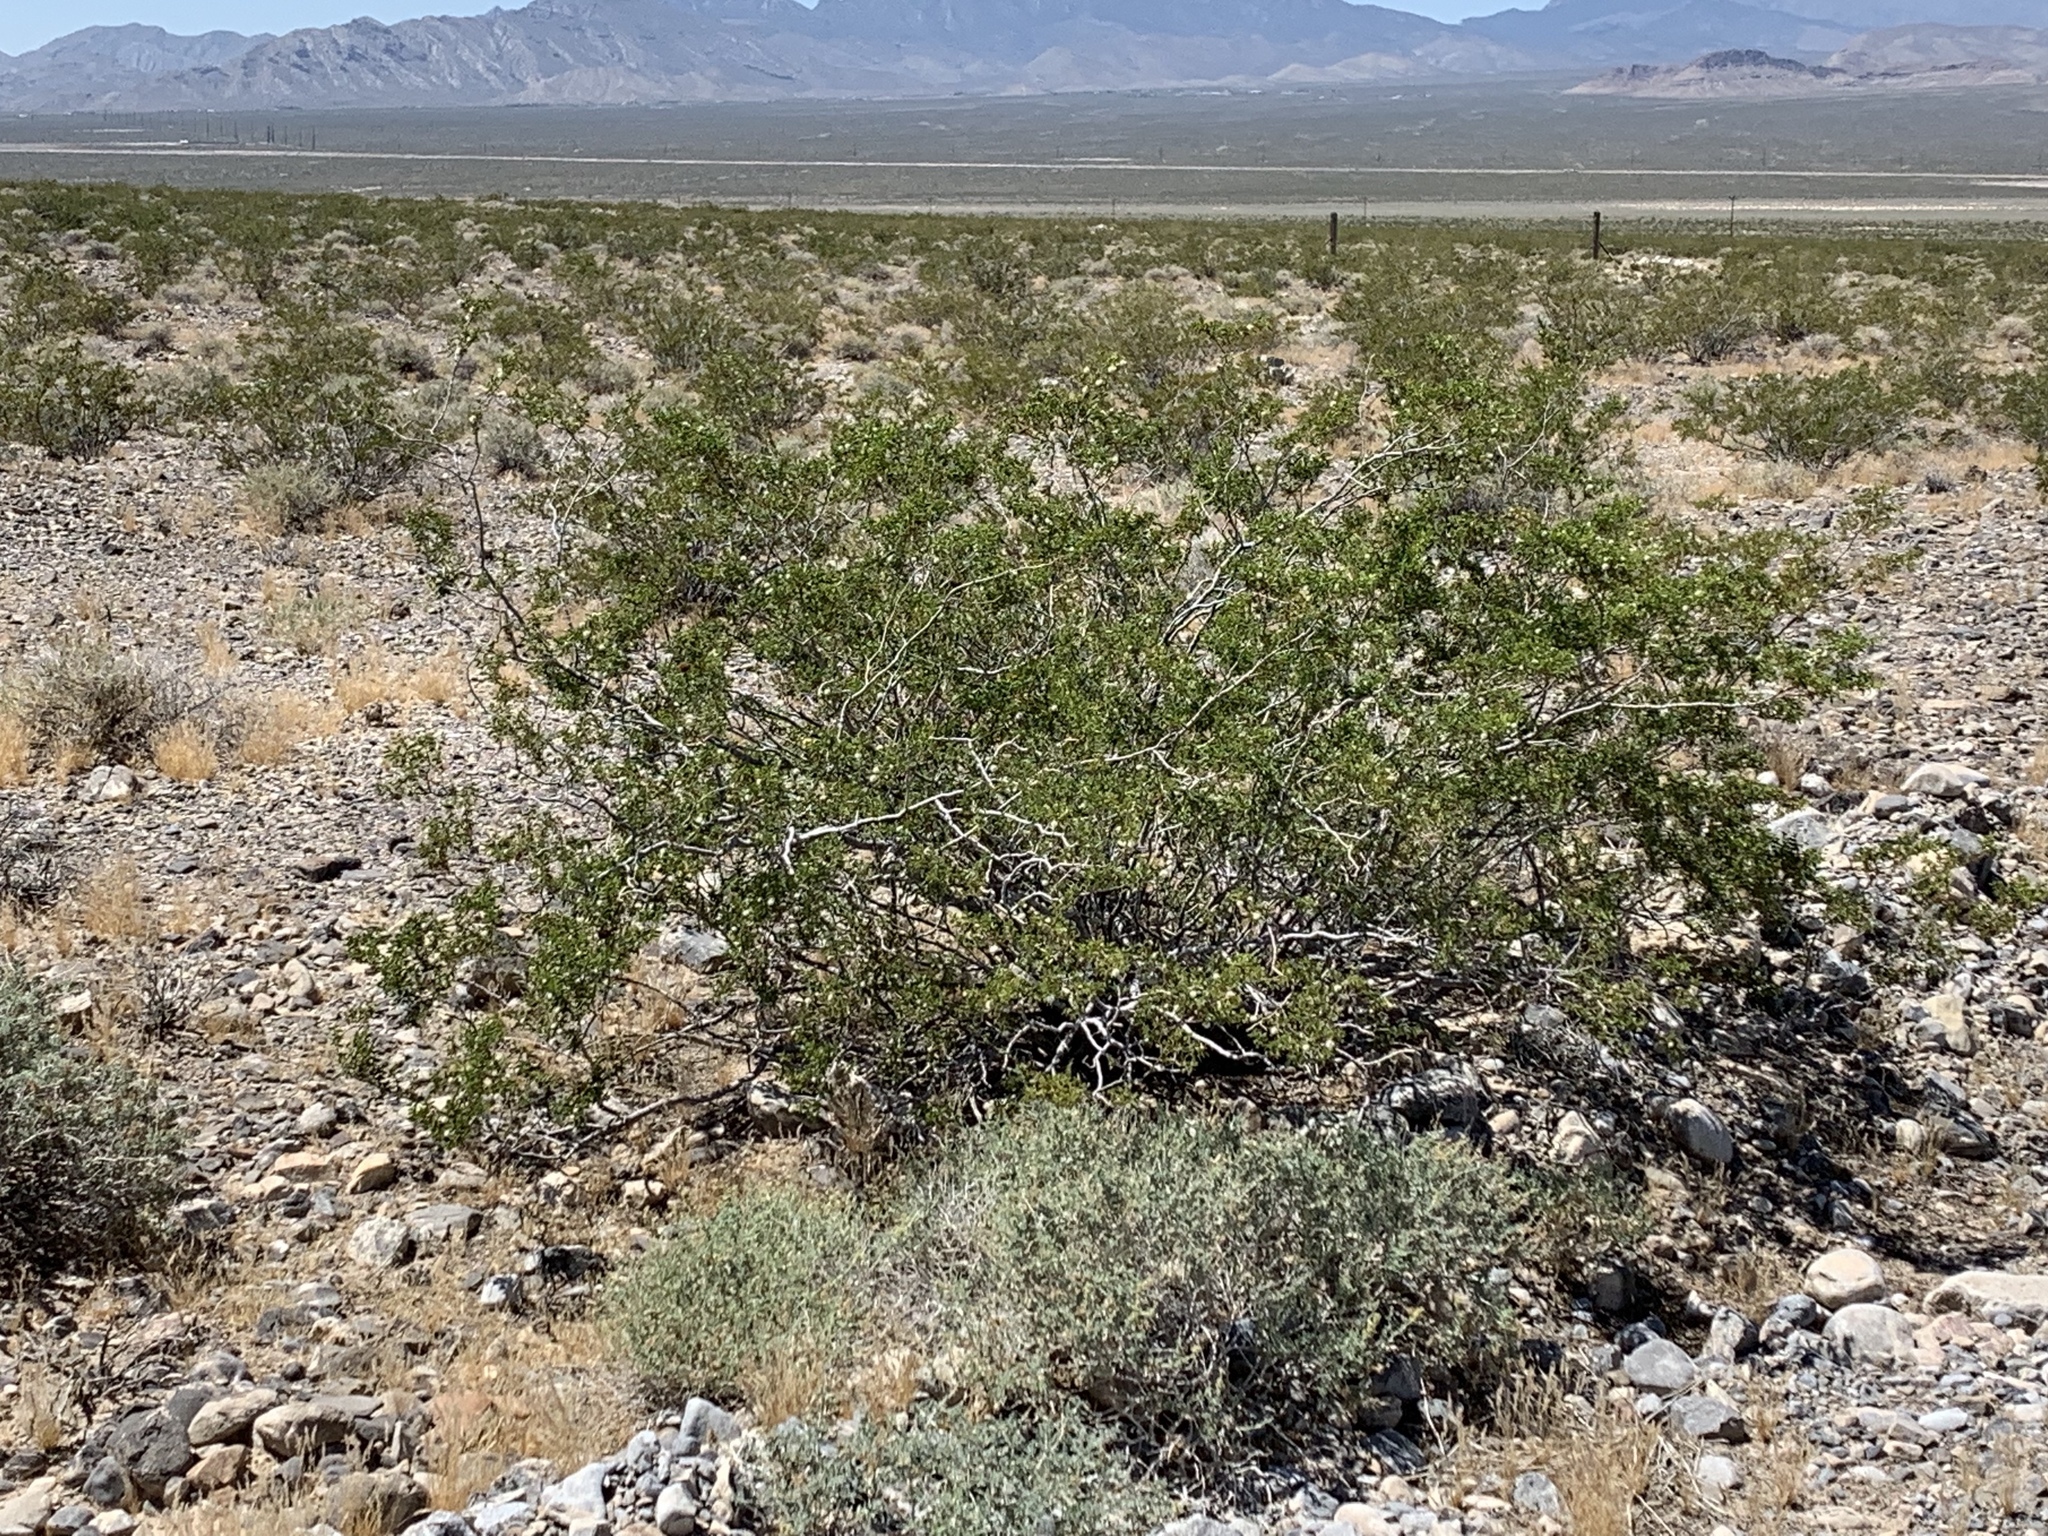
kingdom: Plantae
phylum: Tracheophyta
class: Magnoliopsida
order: Zygophyllales
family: Zygophyllaceae
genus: Larrea
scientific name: Larrea tridentata
